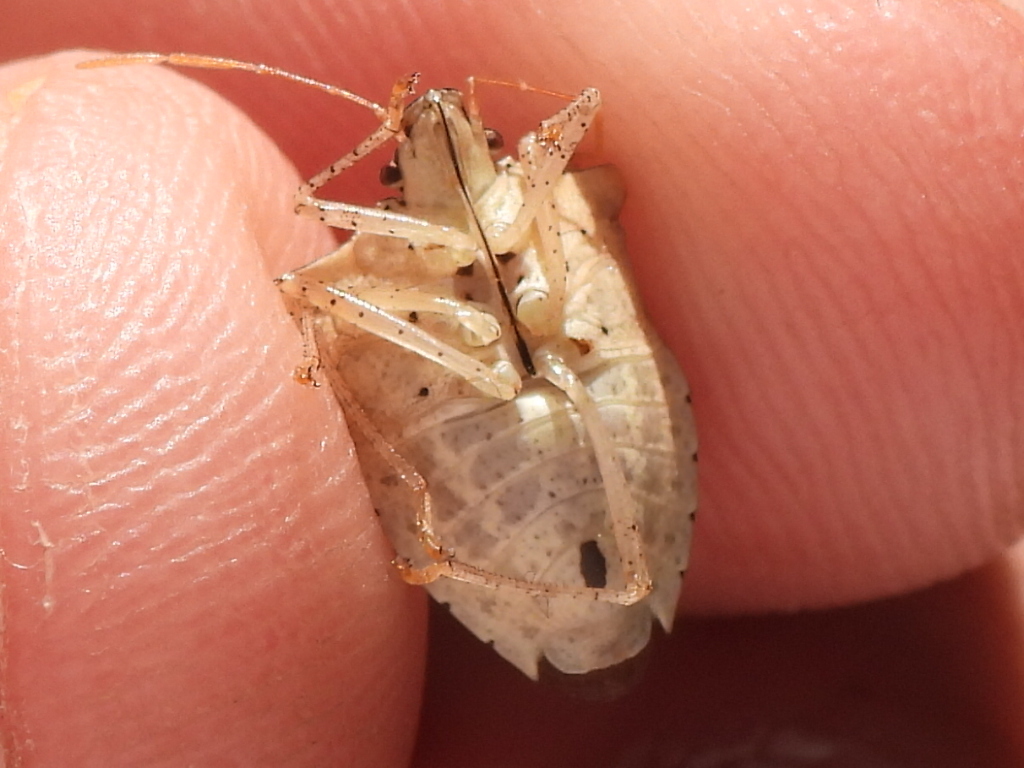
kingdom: Animalia
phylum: Arthropoda
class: Insecta
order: Hemiptera
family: Pentatomidae
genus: Euschistus
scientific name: Euschistus tristigmus
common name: Dusky stink bug
